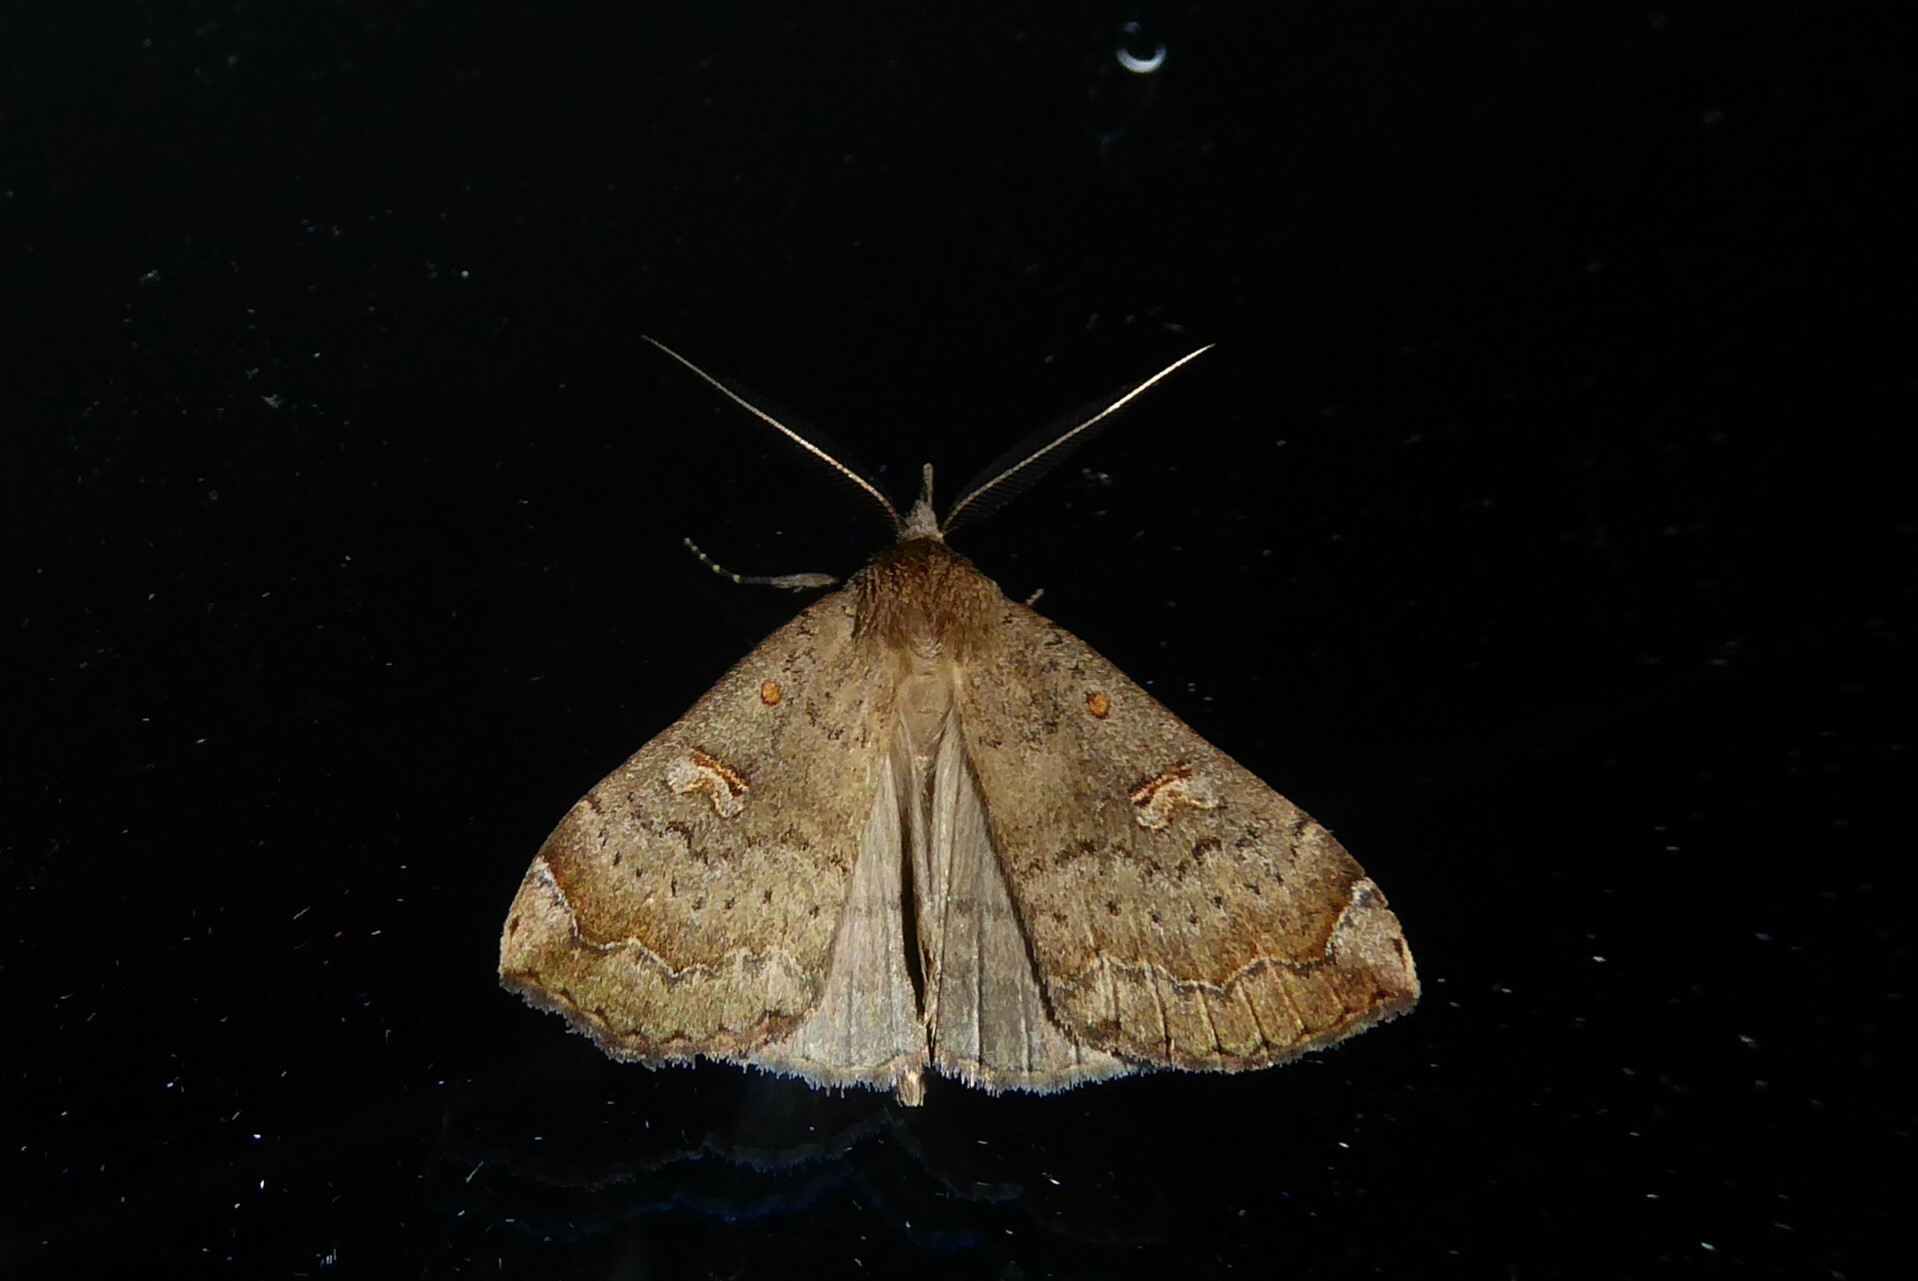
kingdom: Animalia
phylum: Arthropoda
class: Insecta
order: Lepidoptera
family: Erebidae
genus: Rhapsa
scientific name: Rhapsa scotosialis
